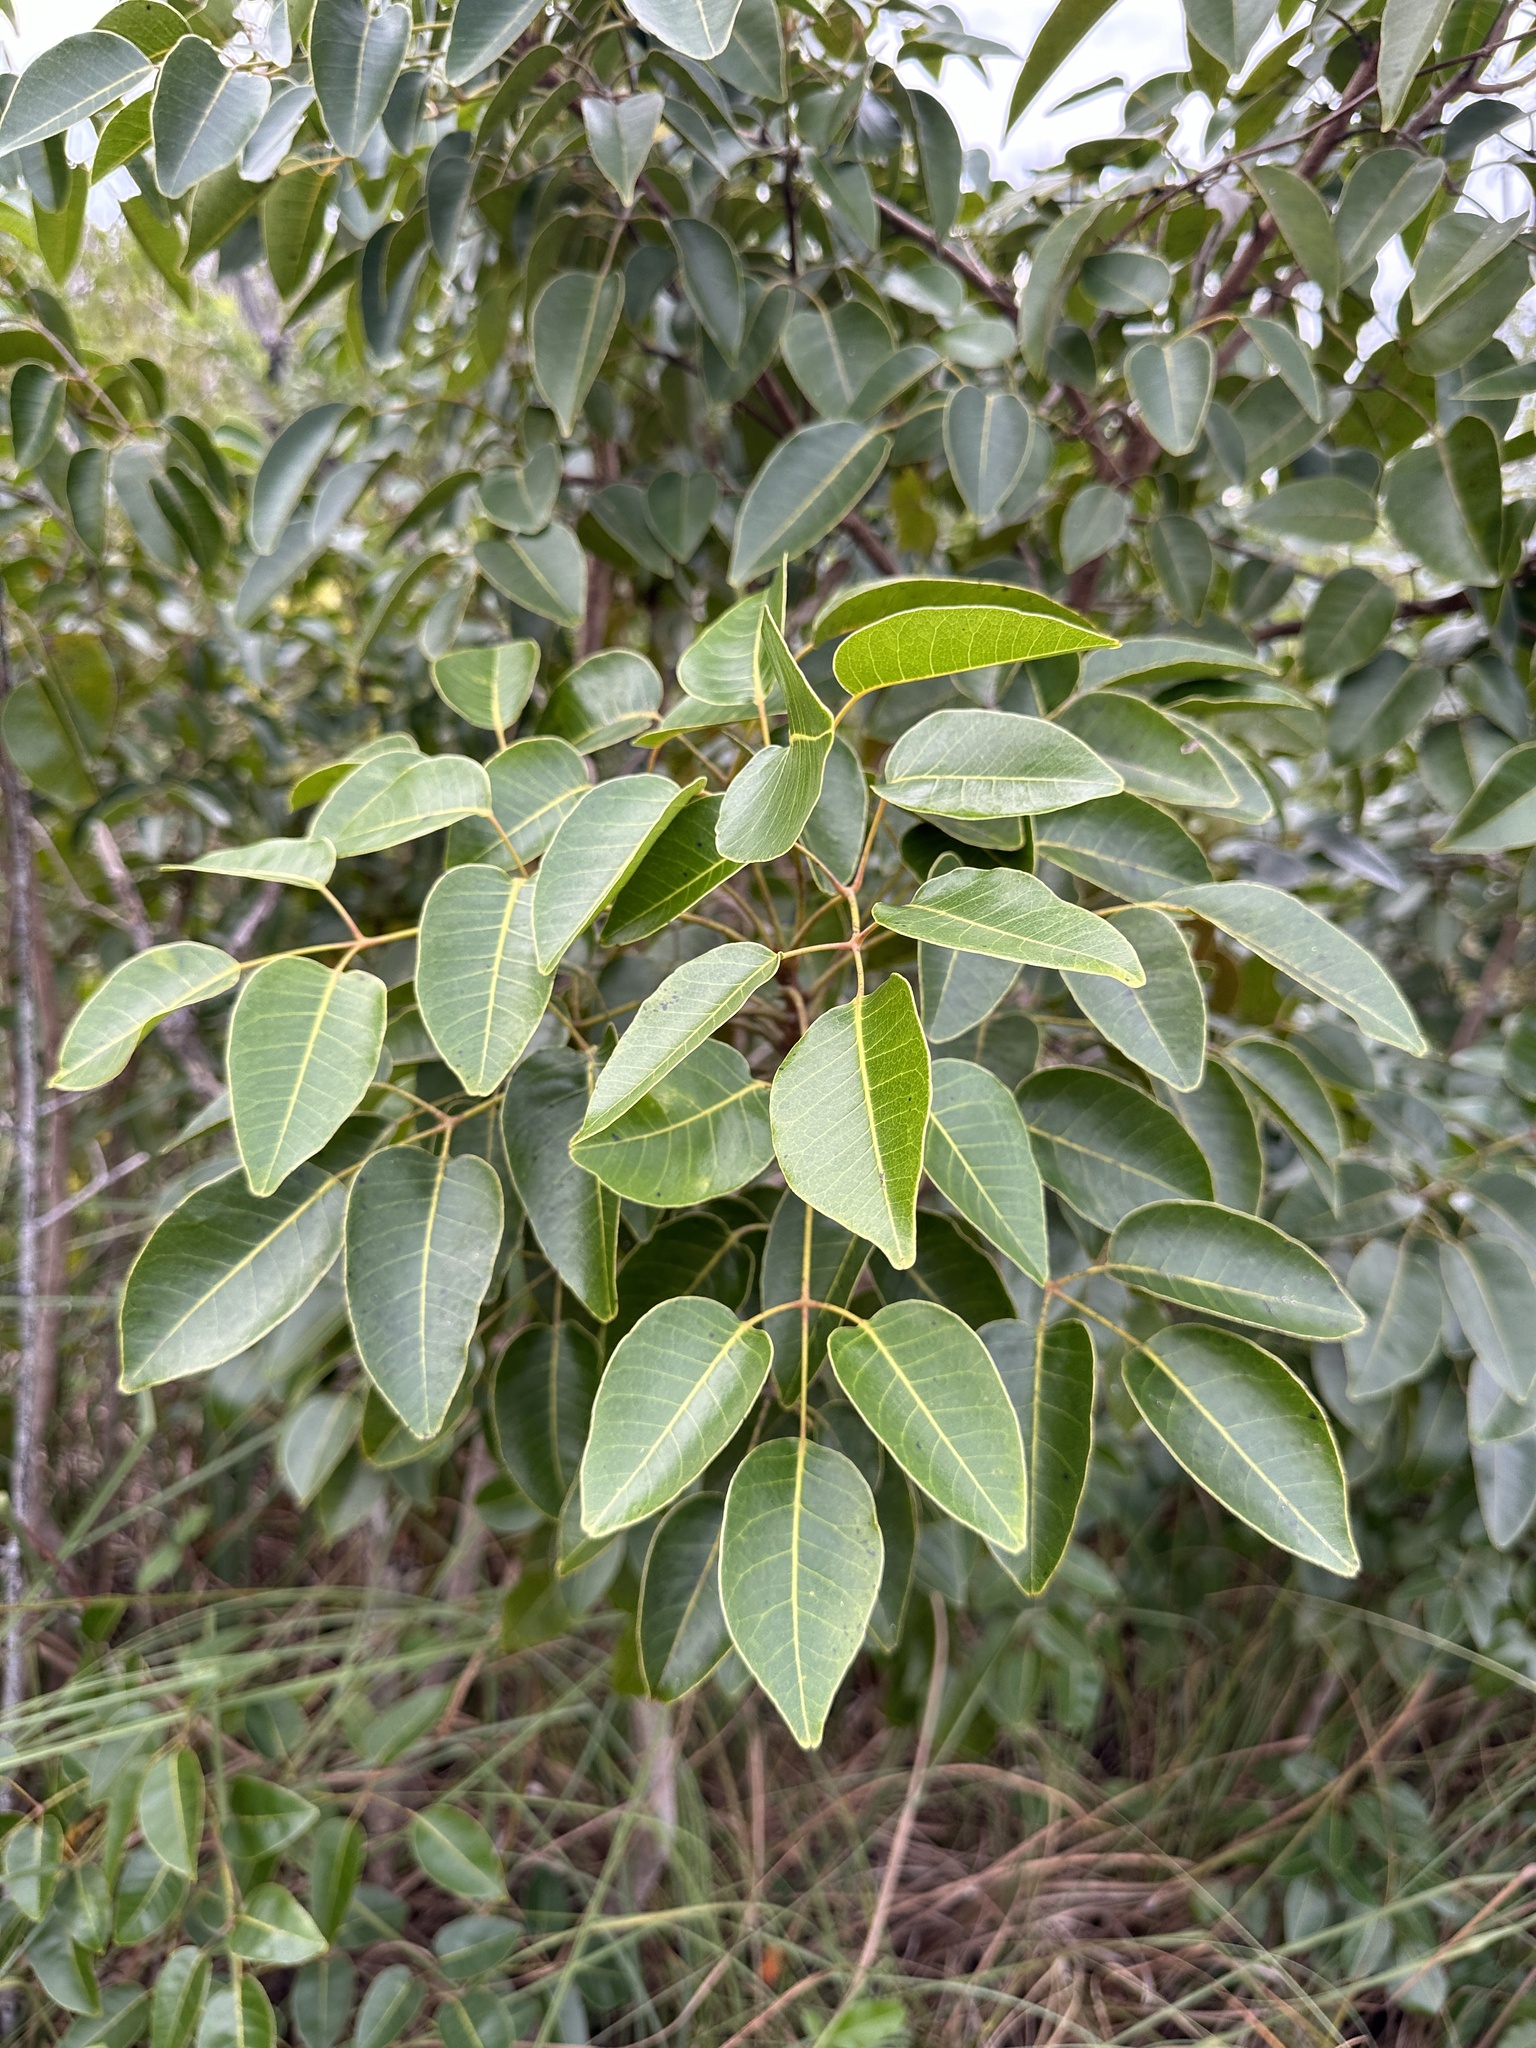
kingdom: Plantae
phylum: Tracheophyta
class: Magnoliopsida
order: Sapindales
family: Anacardiaceae
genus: Metopium
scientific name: Metopium toxiferum
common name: Florida poisontree
